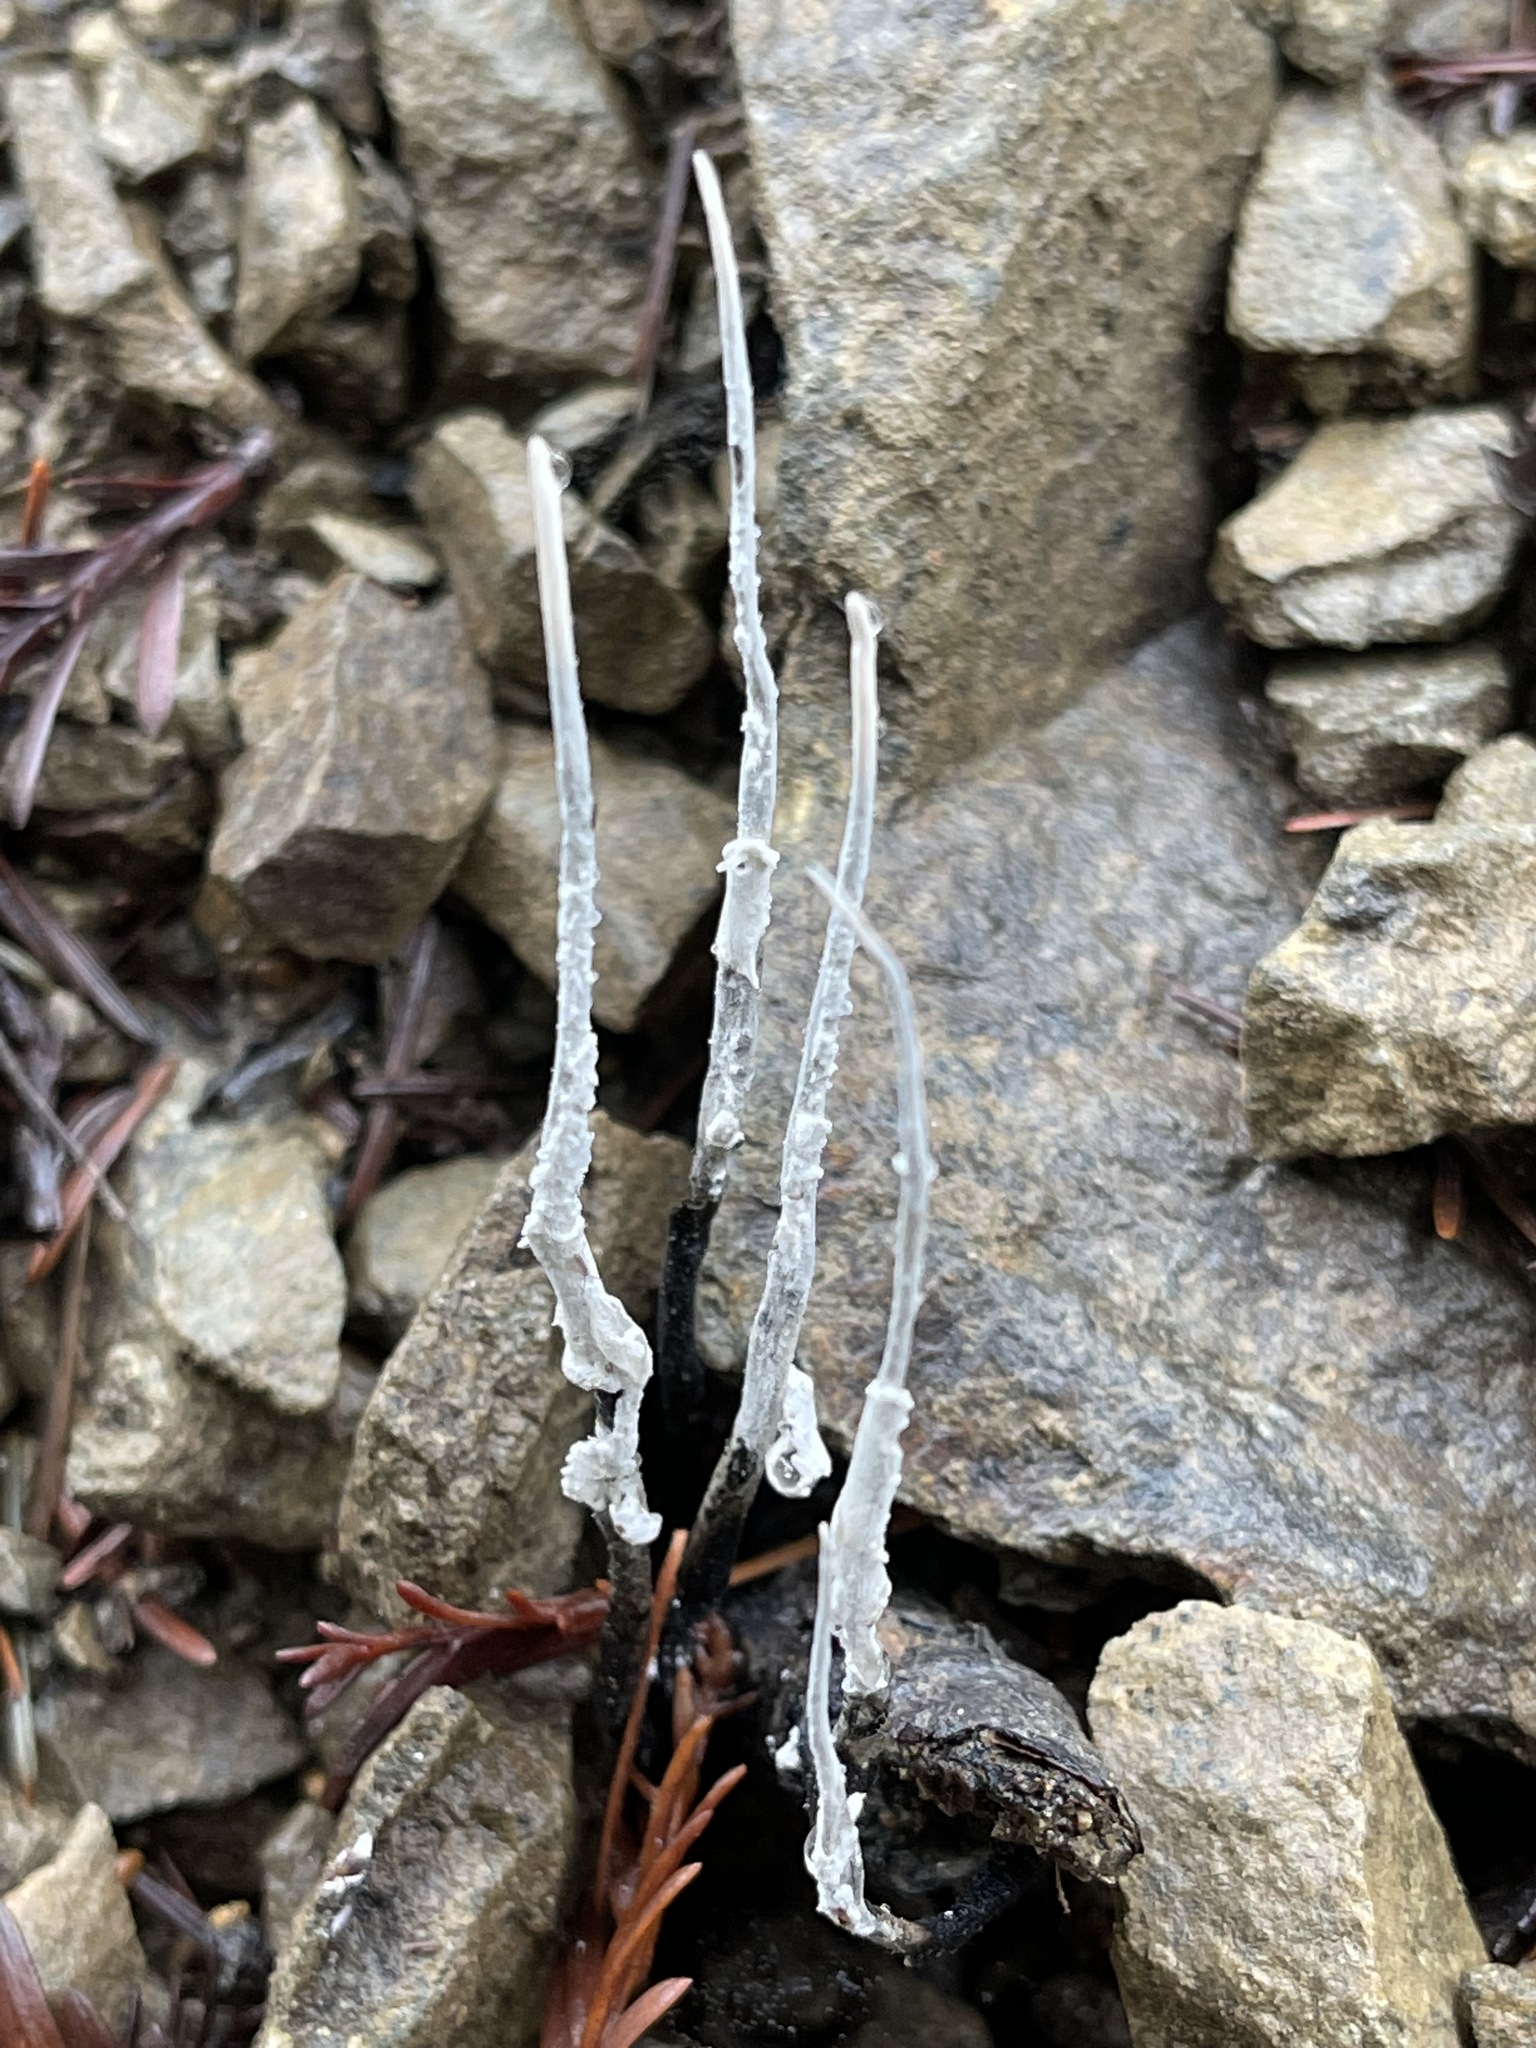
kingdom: Fungi
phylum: Ascomycota
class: Sordariomycetes
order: Xylariales
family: Xylariaceae
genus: Xylaria
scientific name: Xylaria hypoxylon
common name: Candle-snuff fungus
